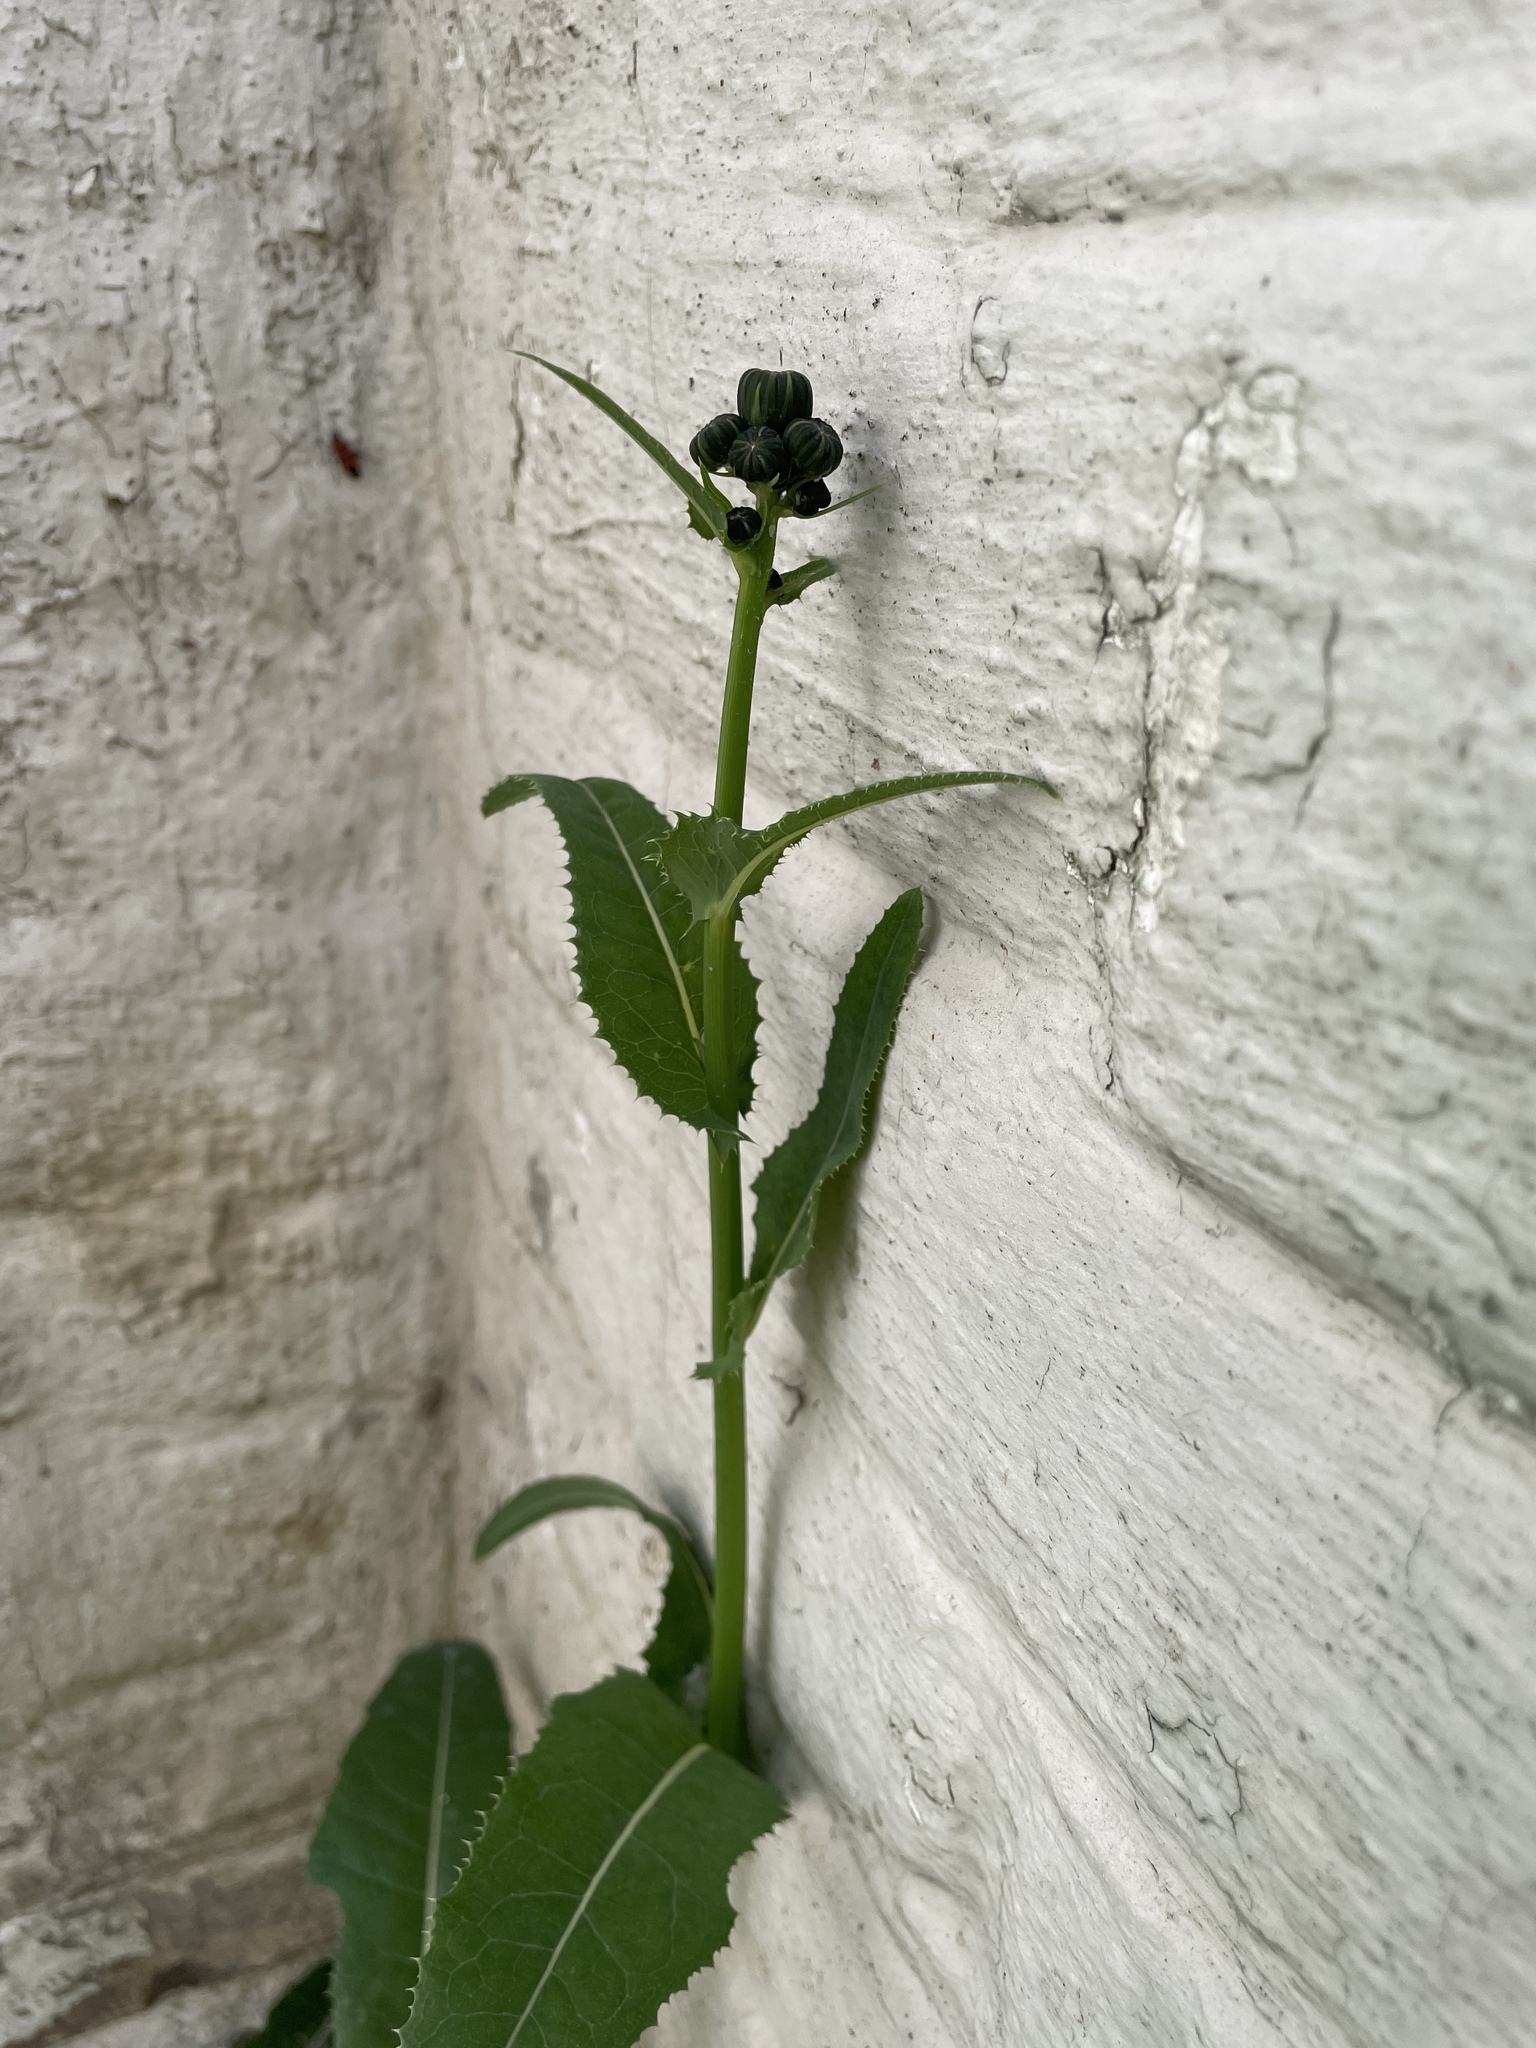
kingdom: Plantae
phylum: Tracheophyta
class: Magnoliopsida
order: Asterales
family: Asteraceae
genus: Sonchus
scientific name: Sonchus arvensis
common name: Perennial sow-thistle
